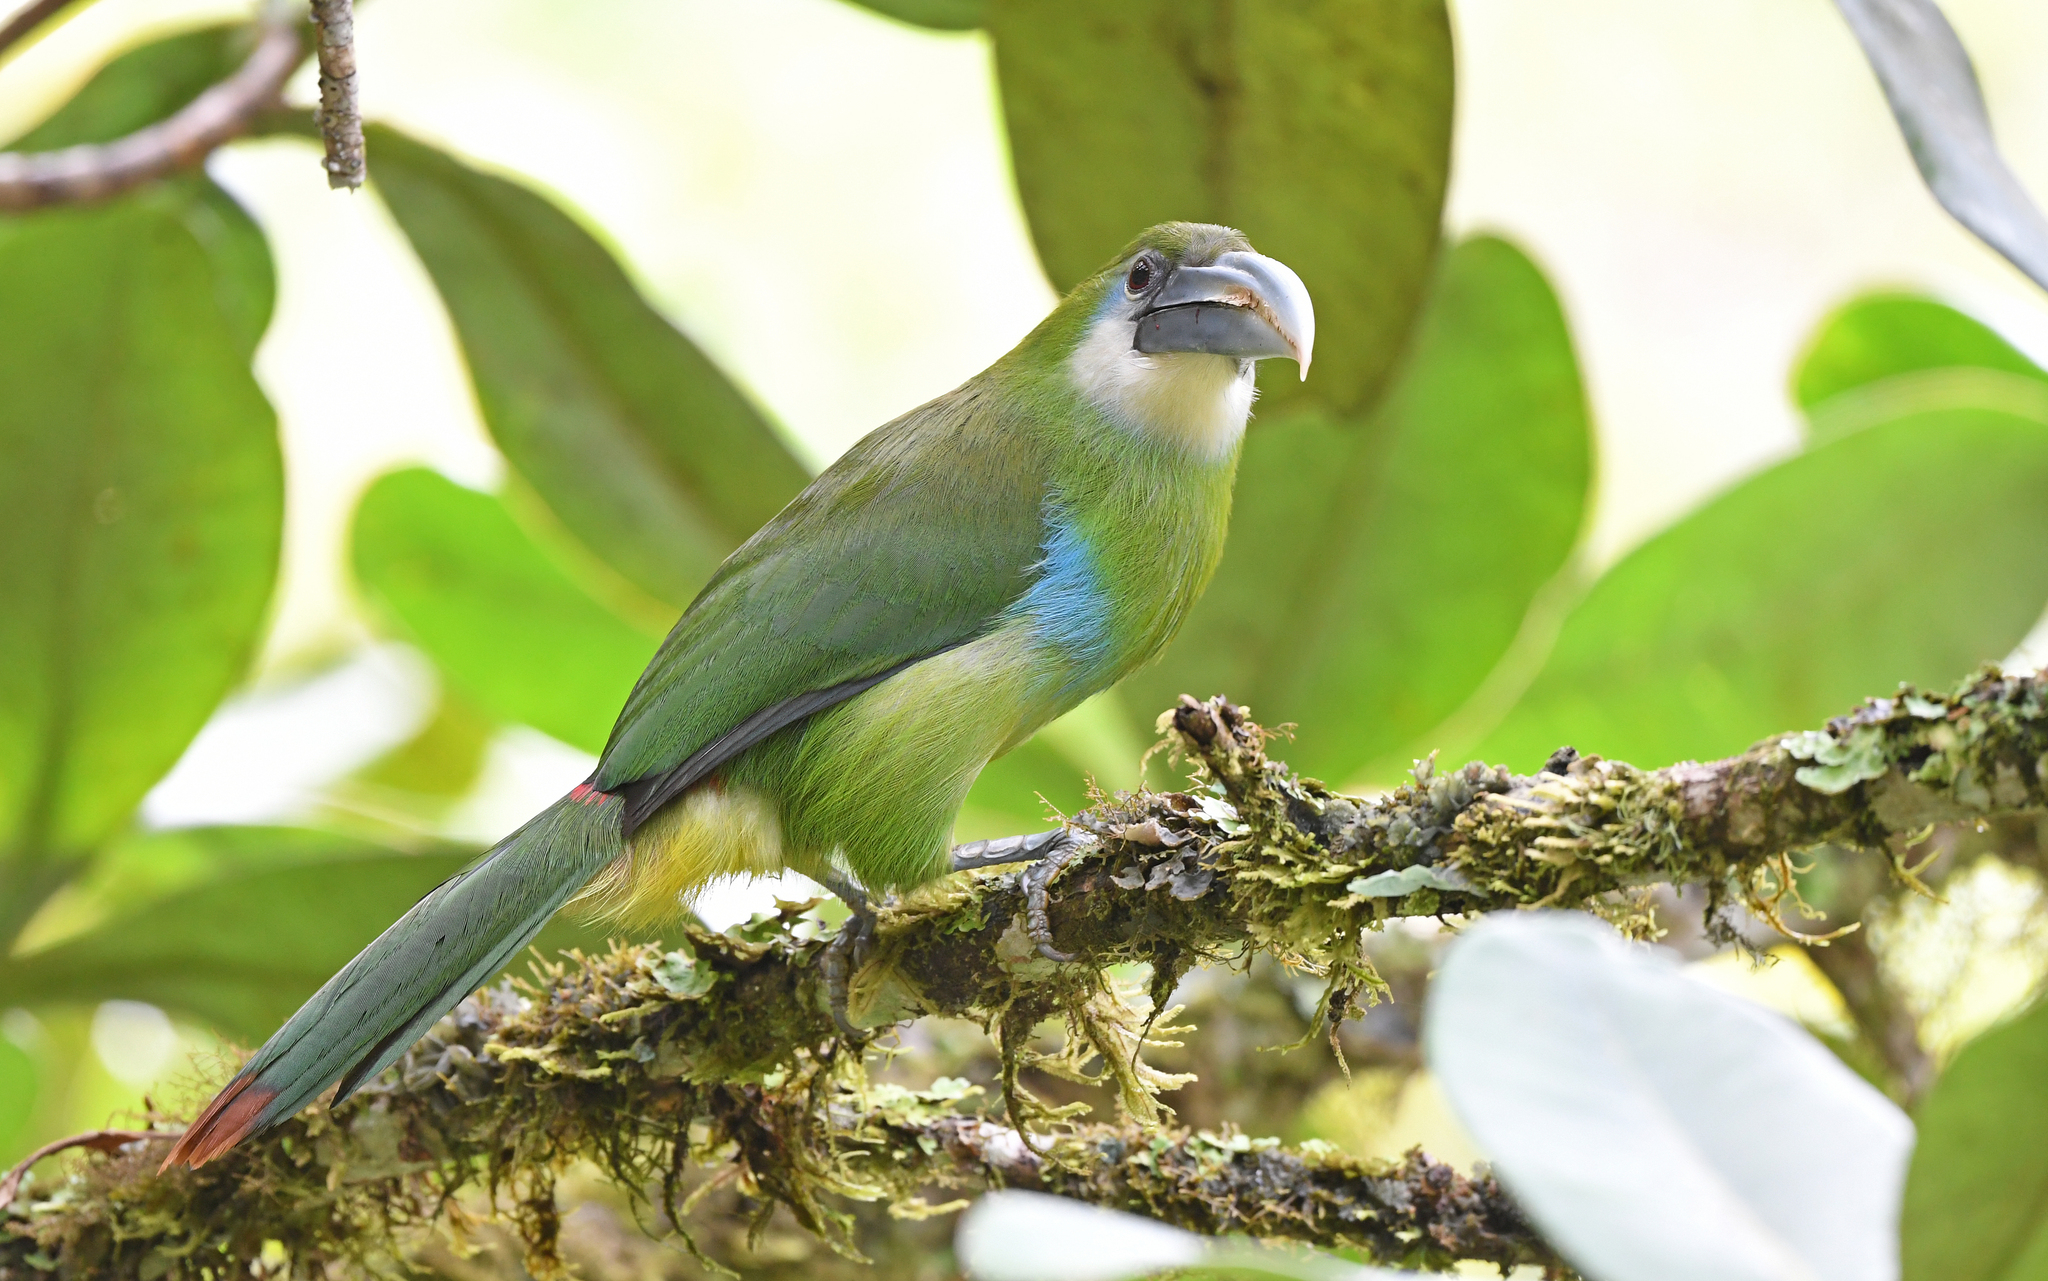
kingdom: Animalia
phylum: Chordata
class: Aves
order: Piciformes
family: Ramphastidae
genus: Aulacorhynchus
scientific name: Aulacorhynchus coeruleicinctis
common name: Blue-banded toucanet
